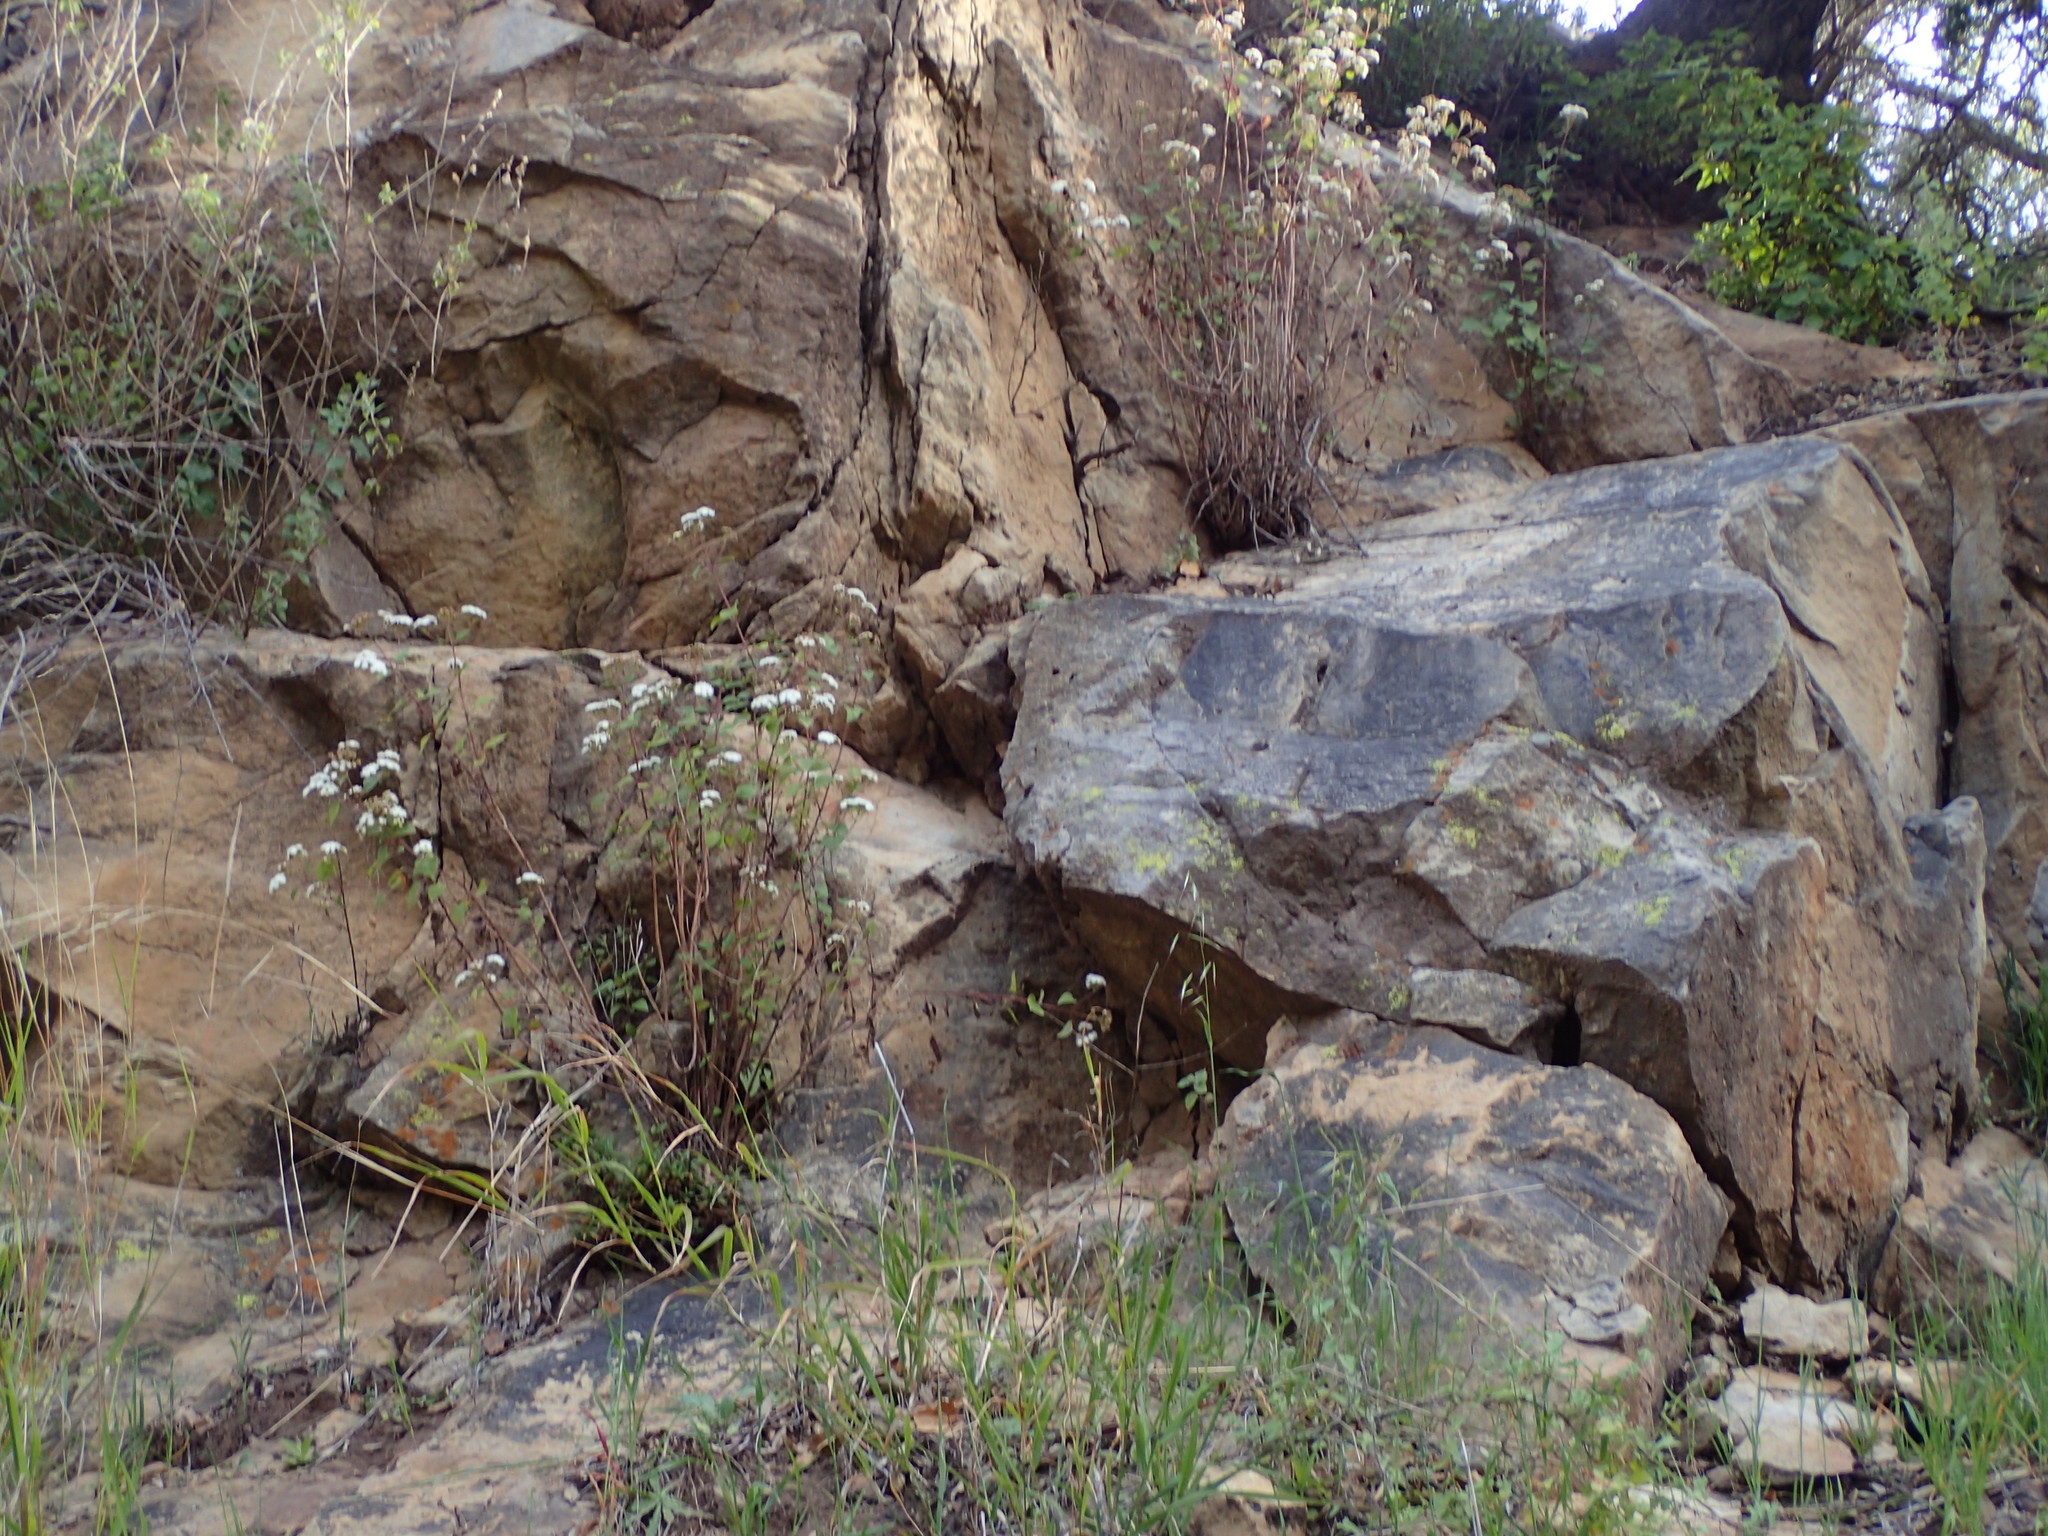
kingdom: Plantae
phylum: Tracheophyta
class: Magnoliopsida
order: Asterales
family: Asteraceae
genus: Ageratina
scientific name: Ageratina adenophora
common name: Sticky snakeroot
